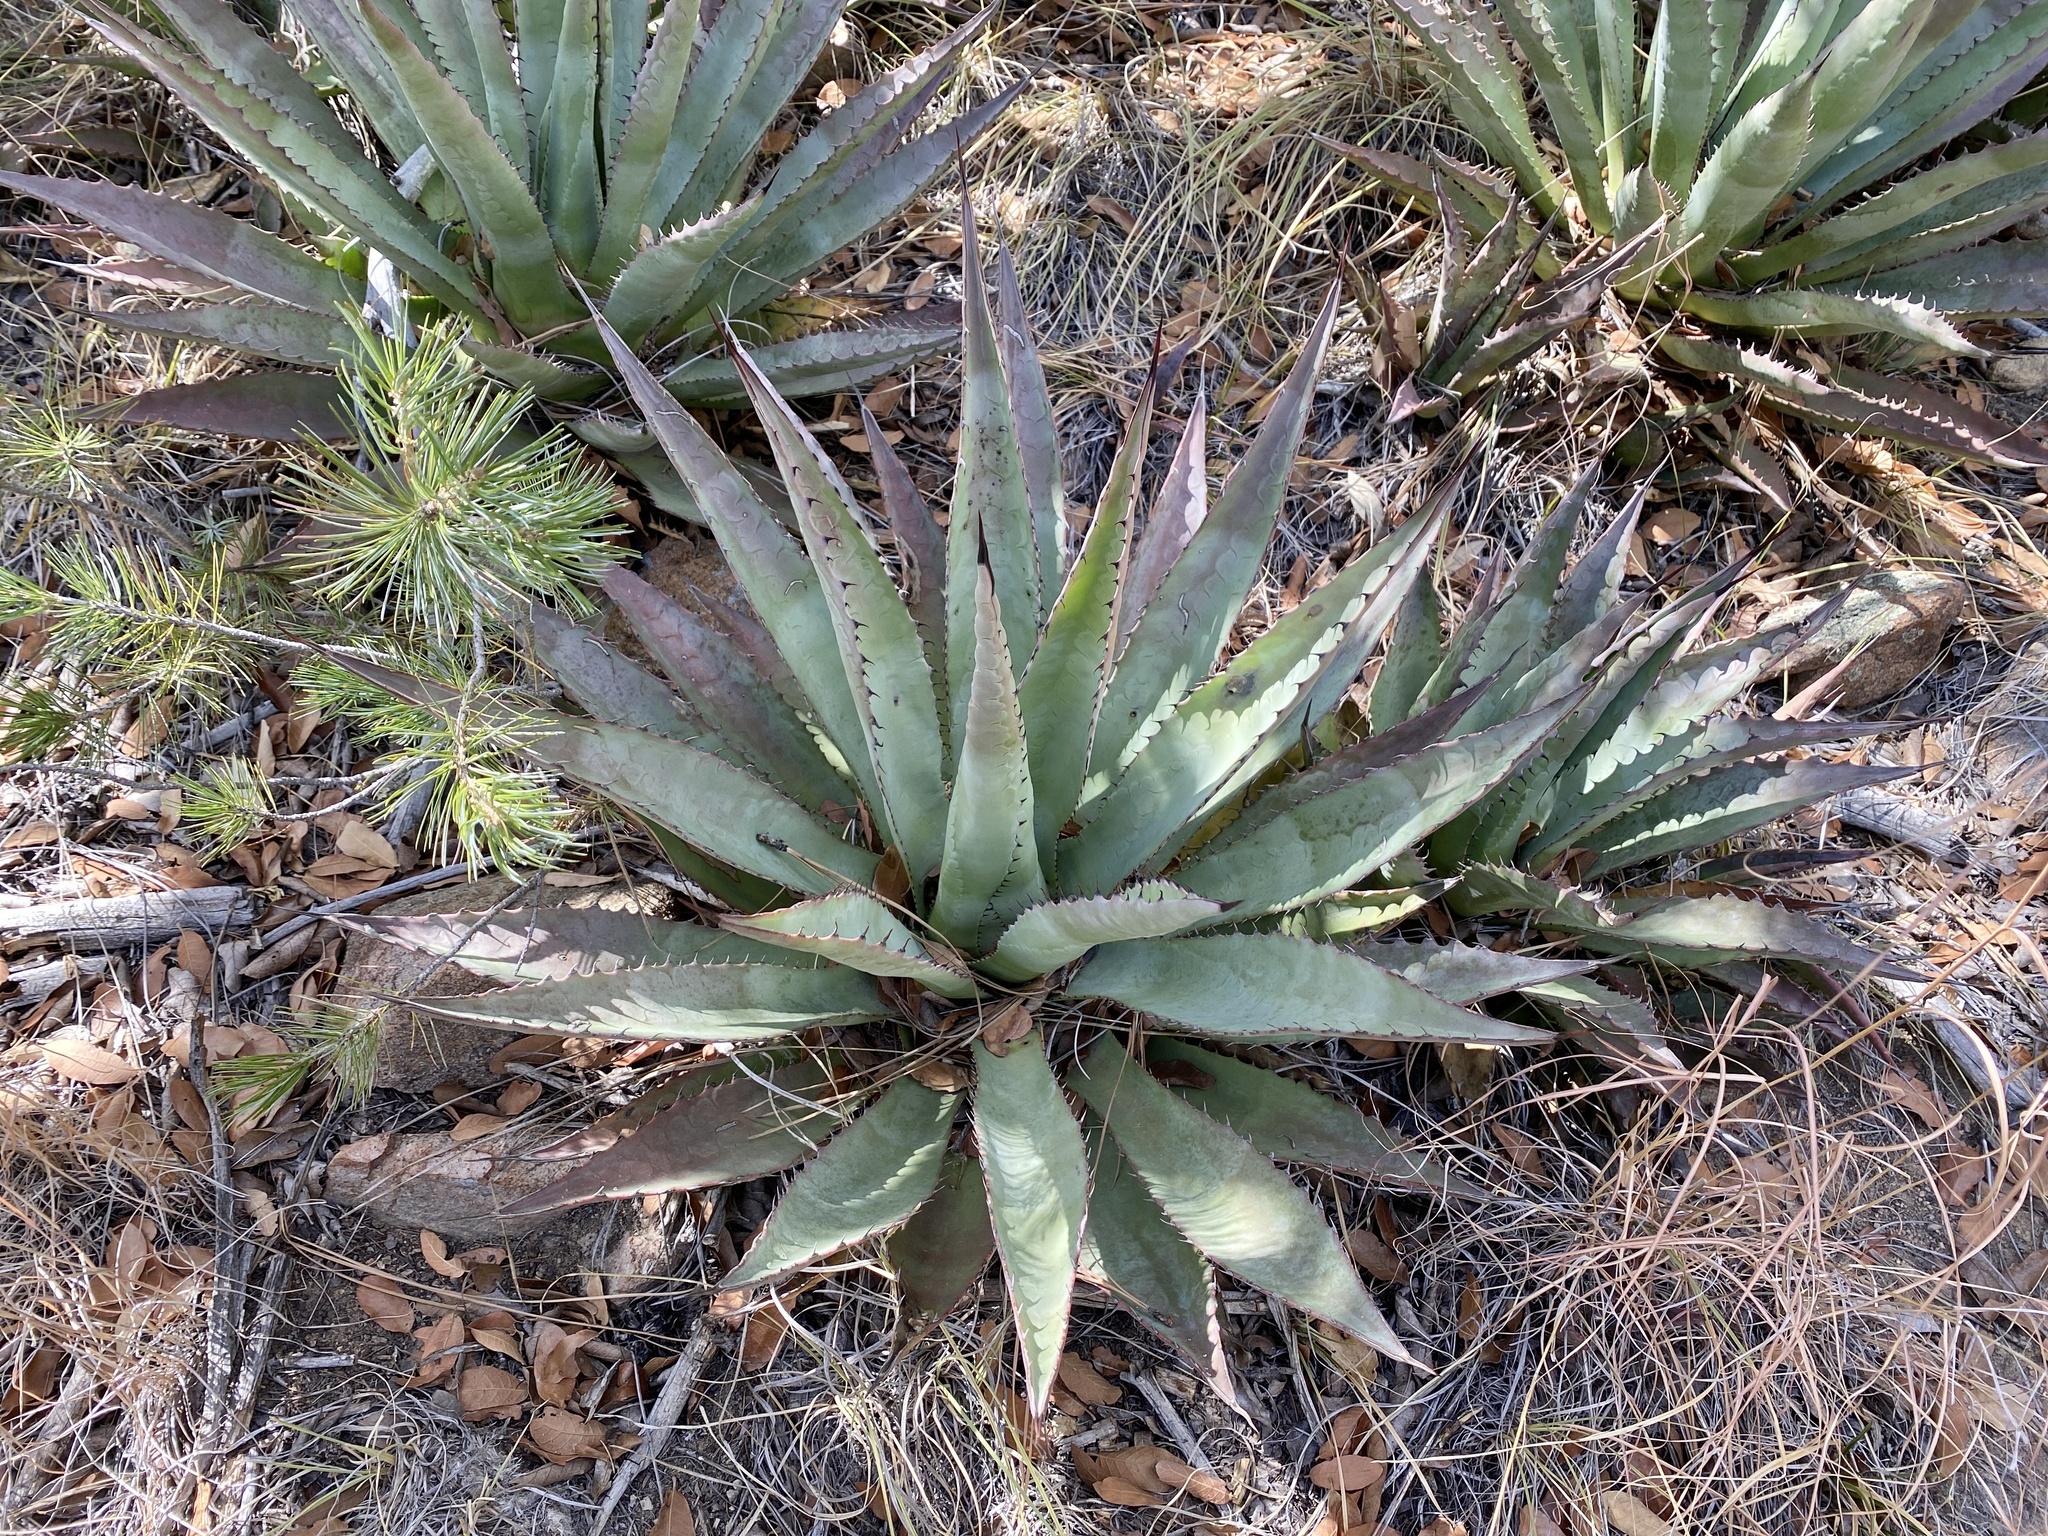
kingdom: Plantae
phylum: Tracheophyta
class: Liliopsida
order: Asparagales
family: Asparagaceae
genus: Agave
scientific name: Agave palmeri
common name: Palmer agave
